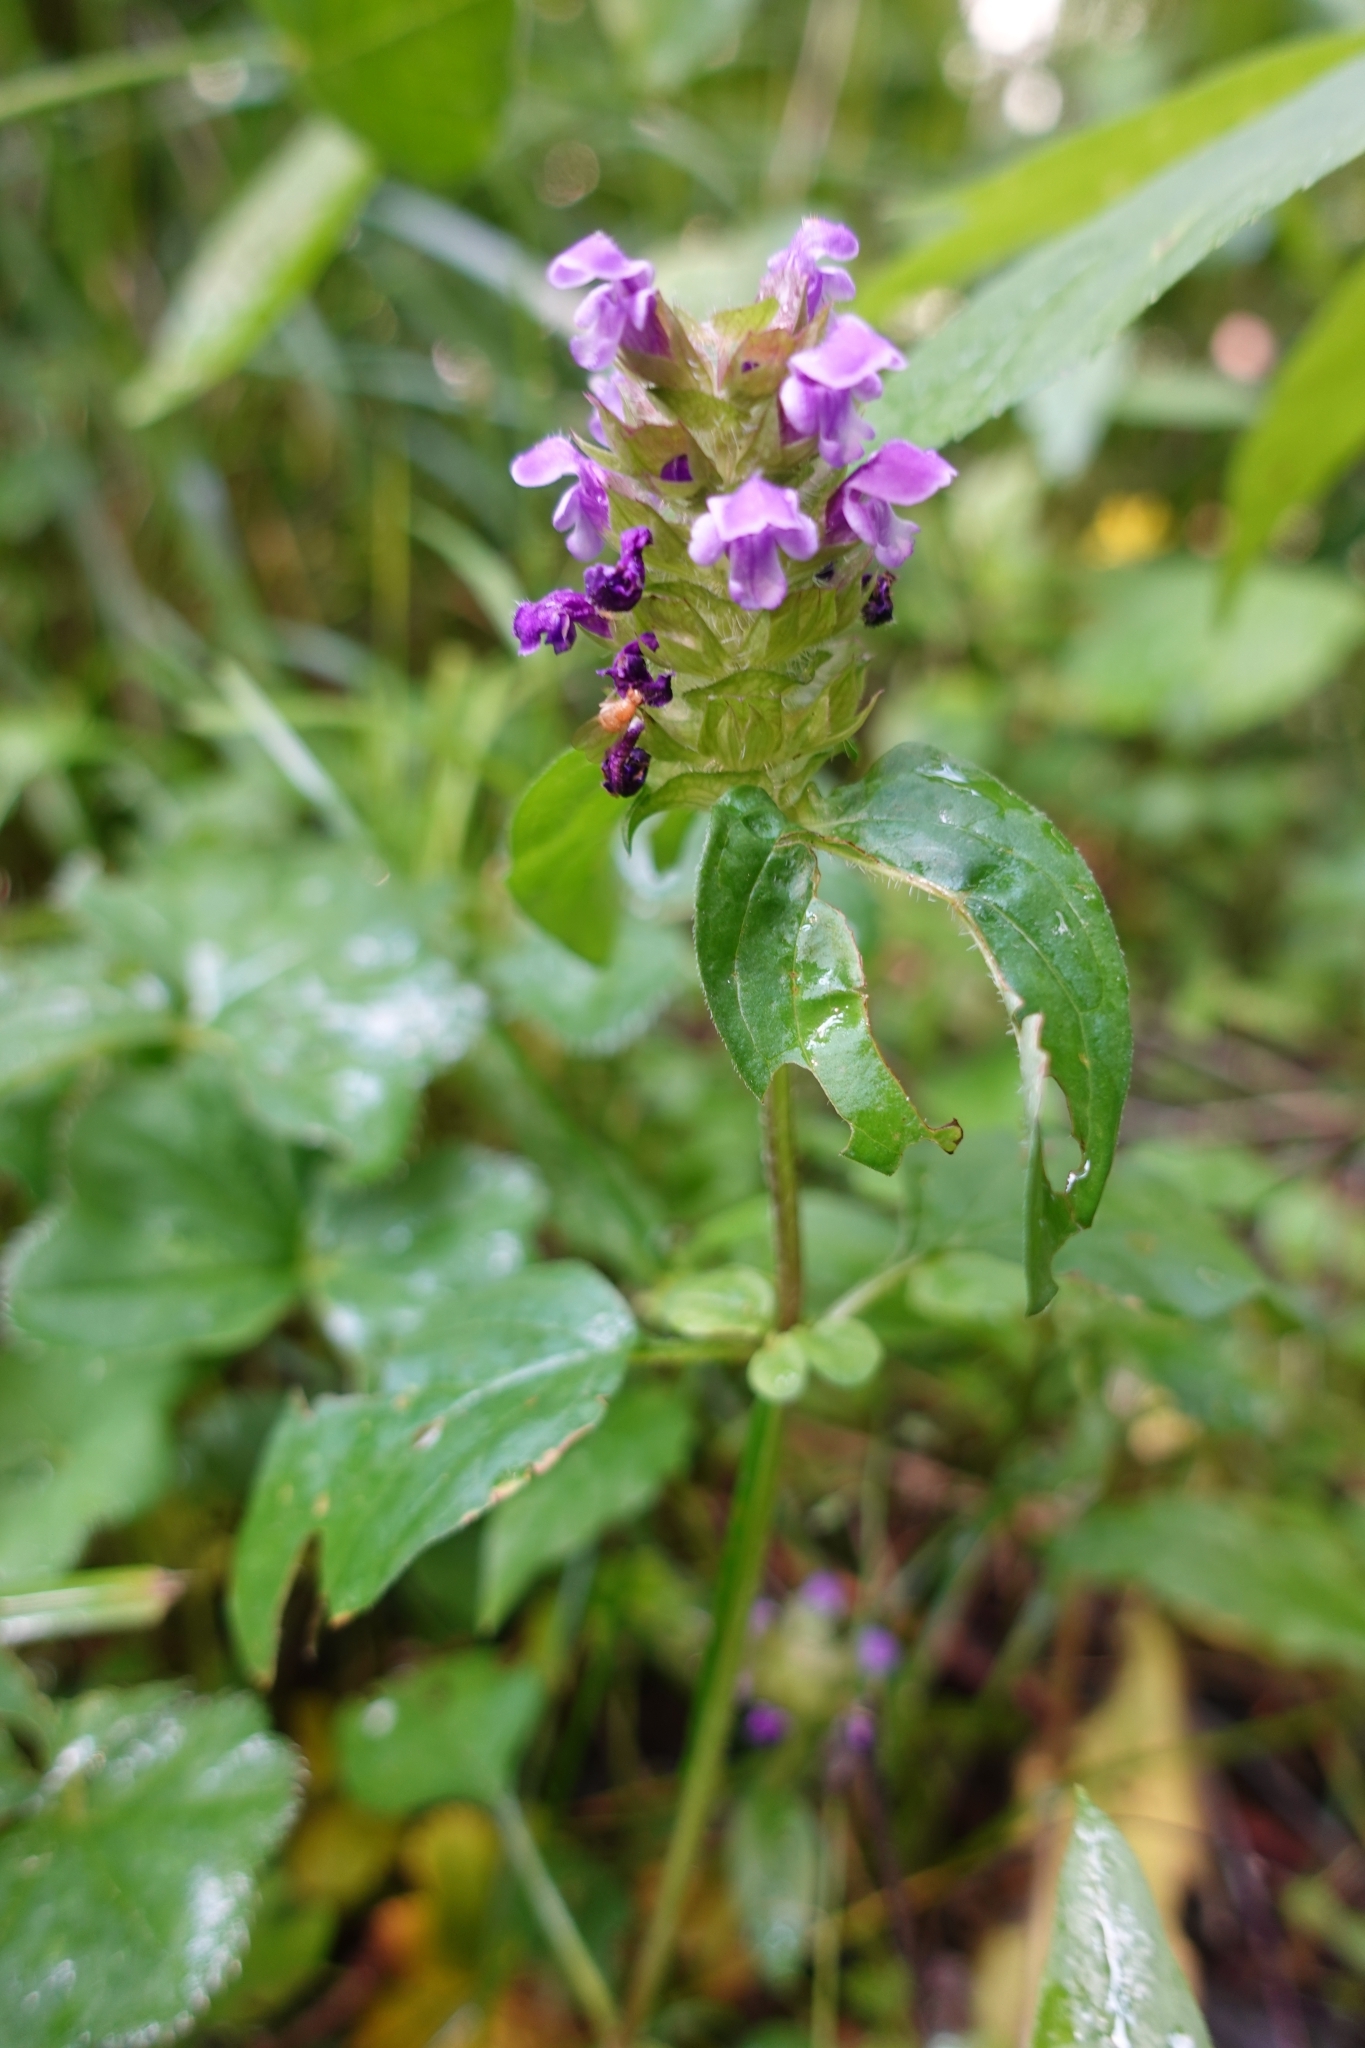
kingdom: Plantae
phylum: Tracheophyta
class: Magnoliopsida
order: Lamiales
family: Lamiaceae
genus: Prunella
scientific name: Prunella vulgaris
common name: Heal-all
